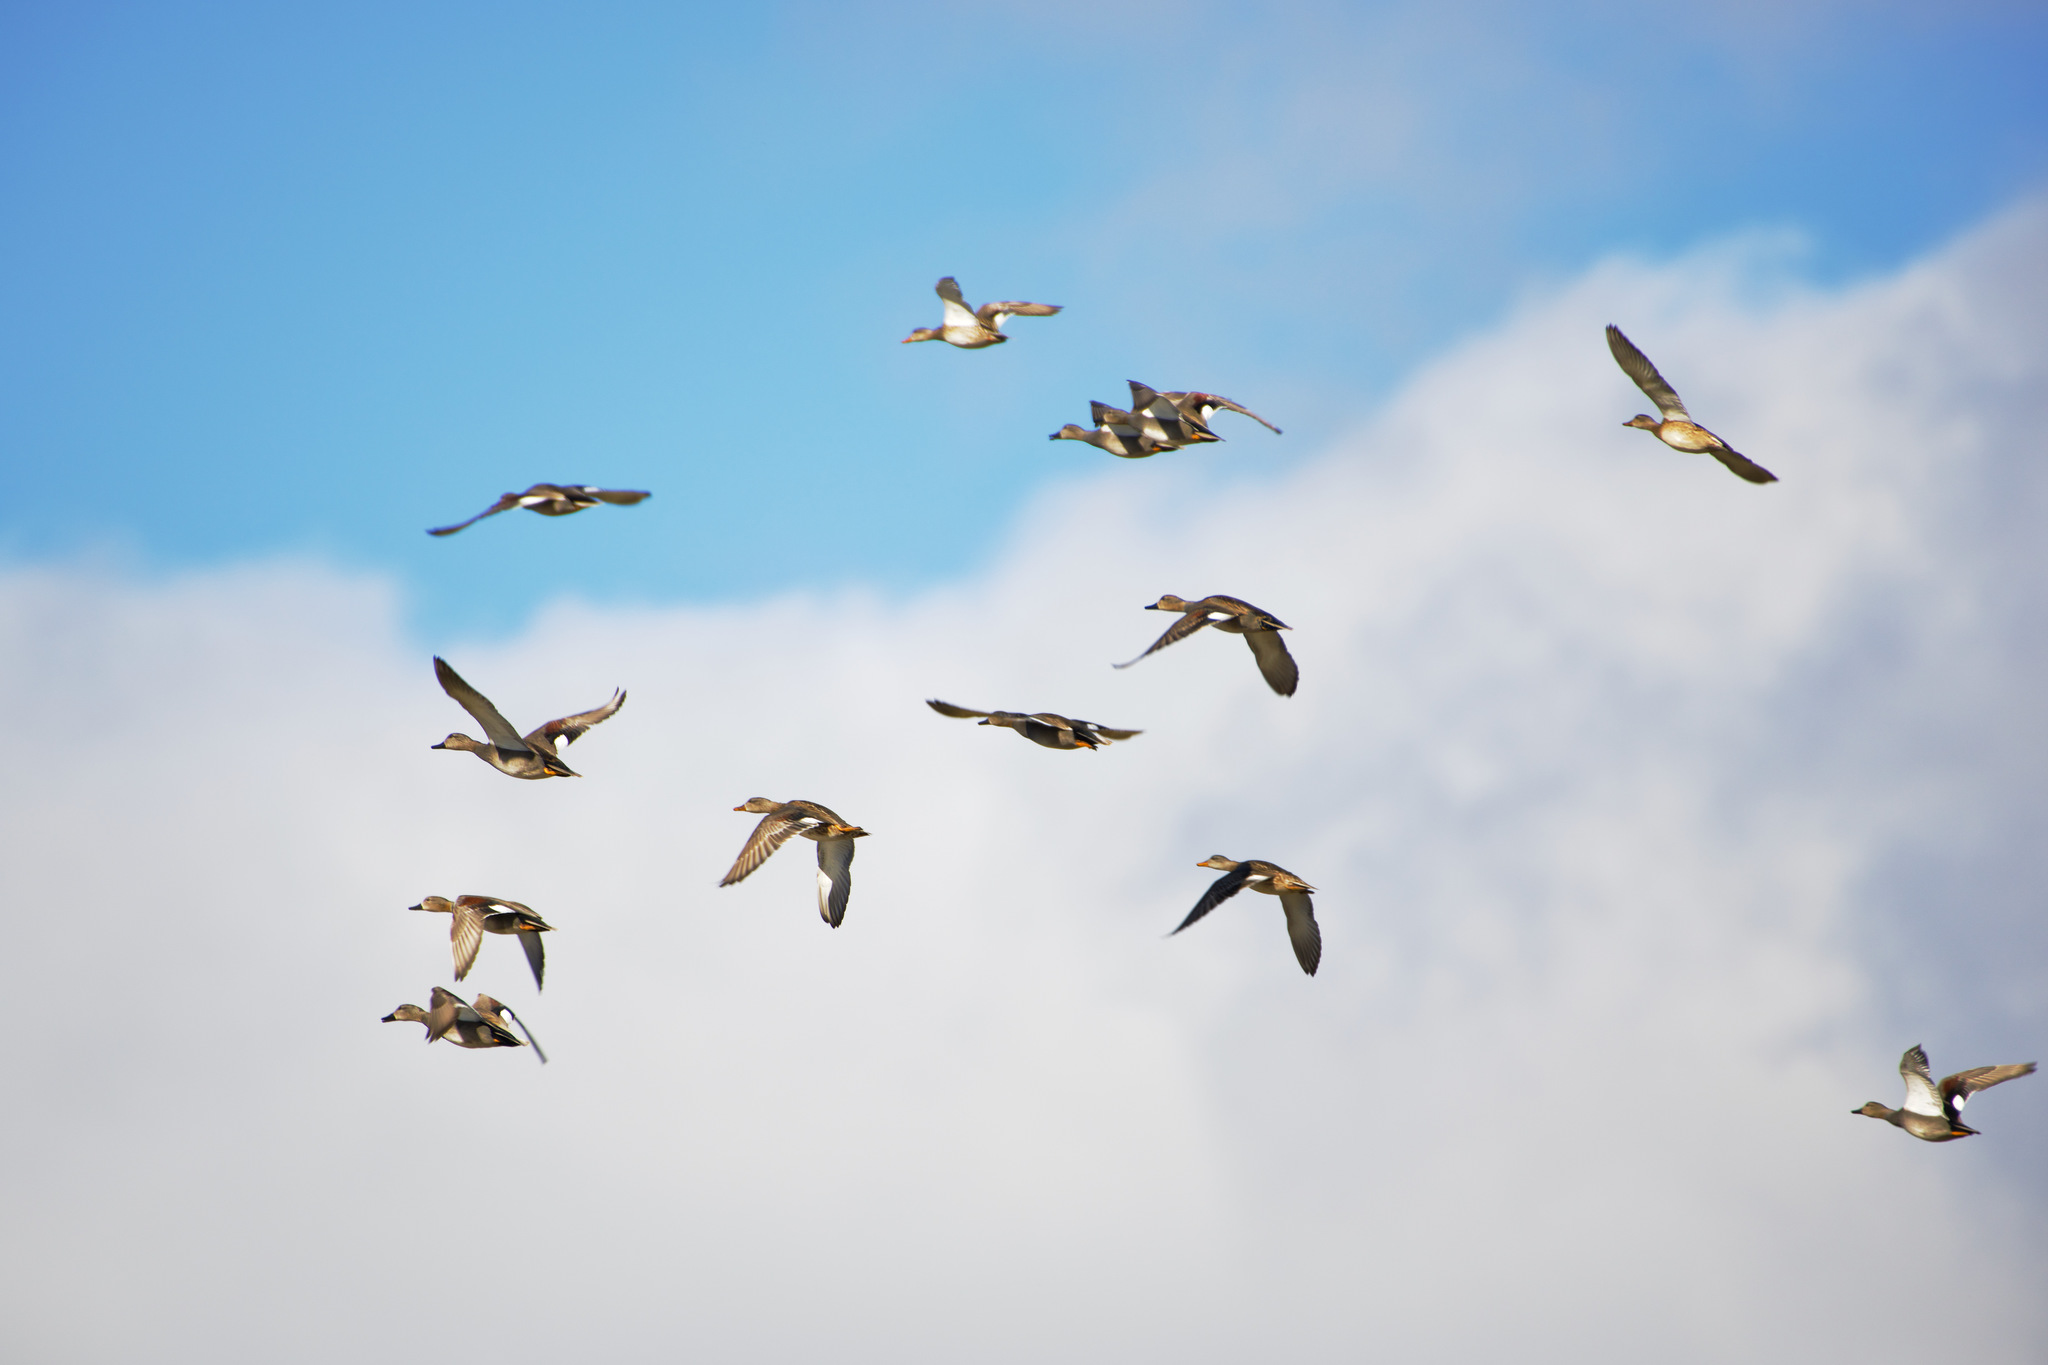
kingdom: Animalia
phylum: Chordata
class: Aves
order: Anseriformes
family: Anatidae
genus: Mareca
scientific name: Mareca strepera
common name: Gadwall
